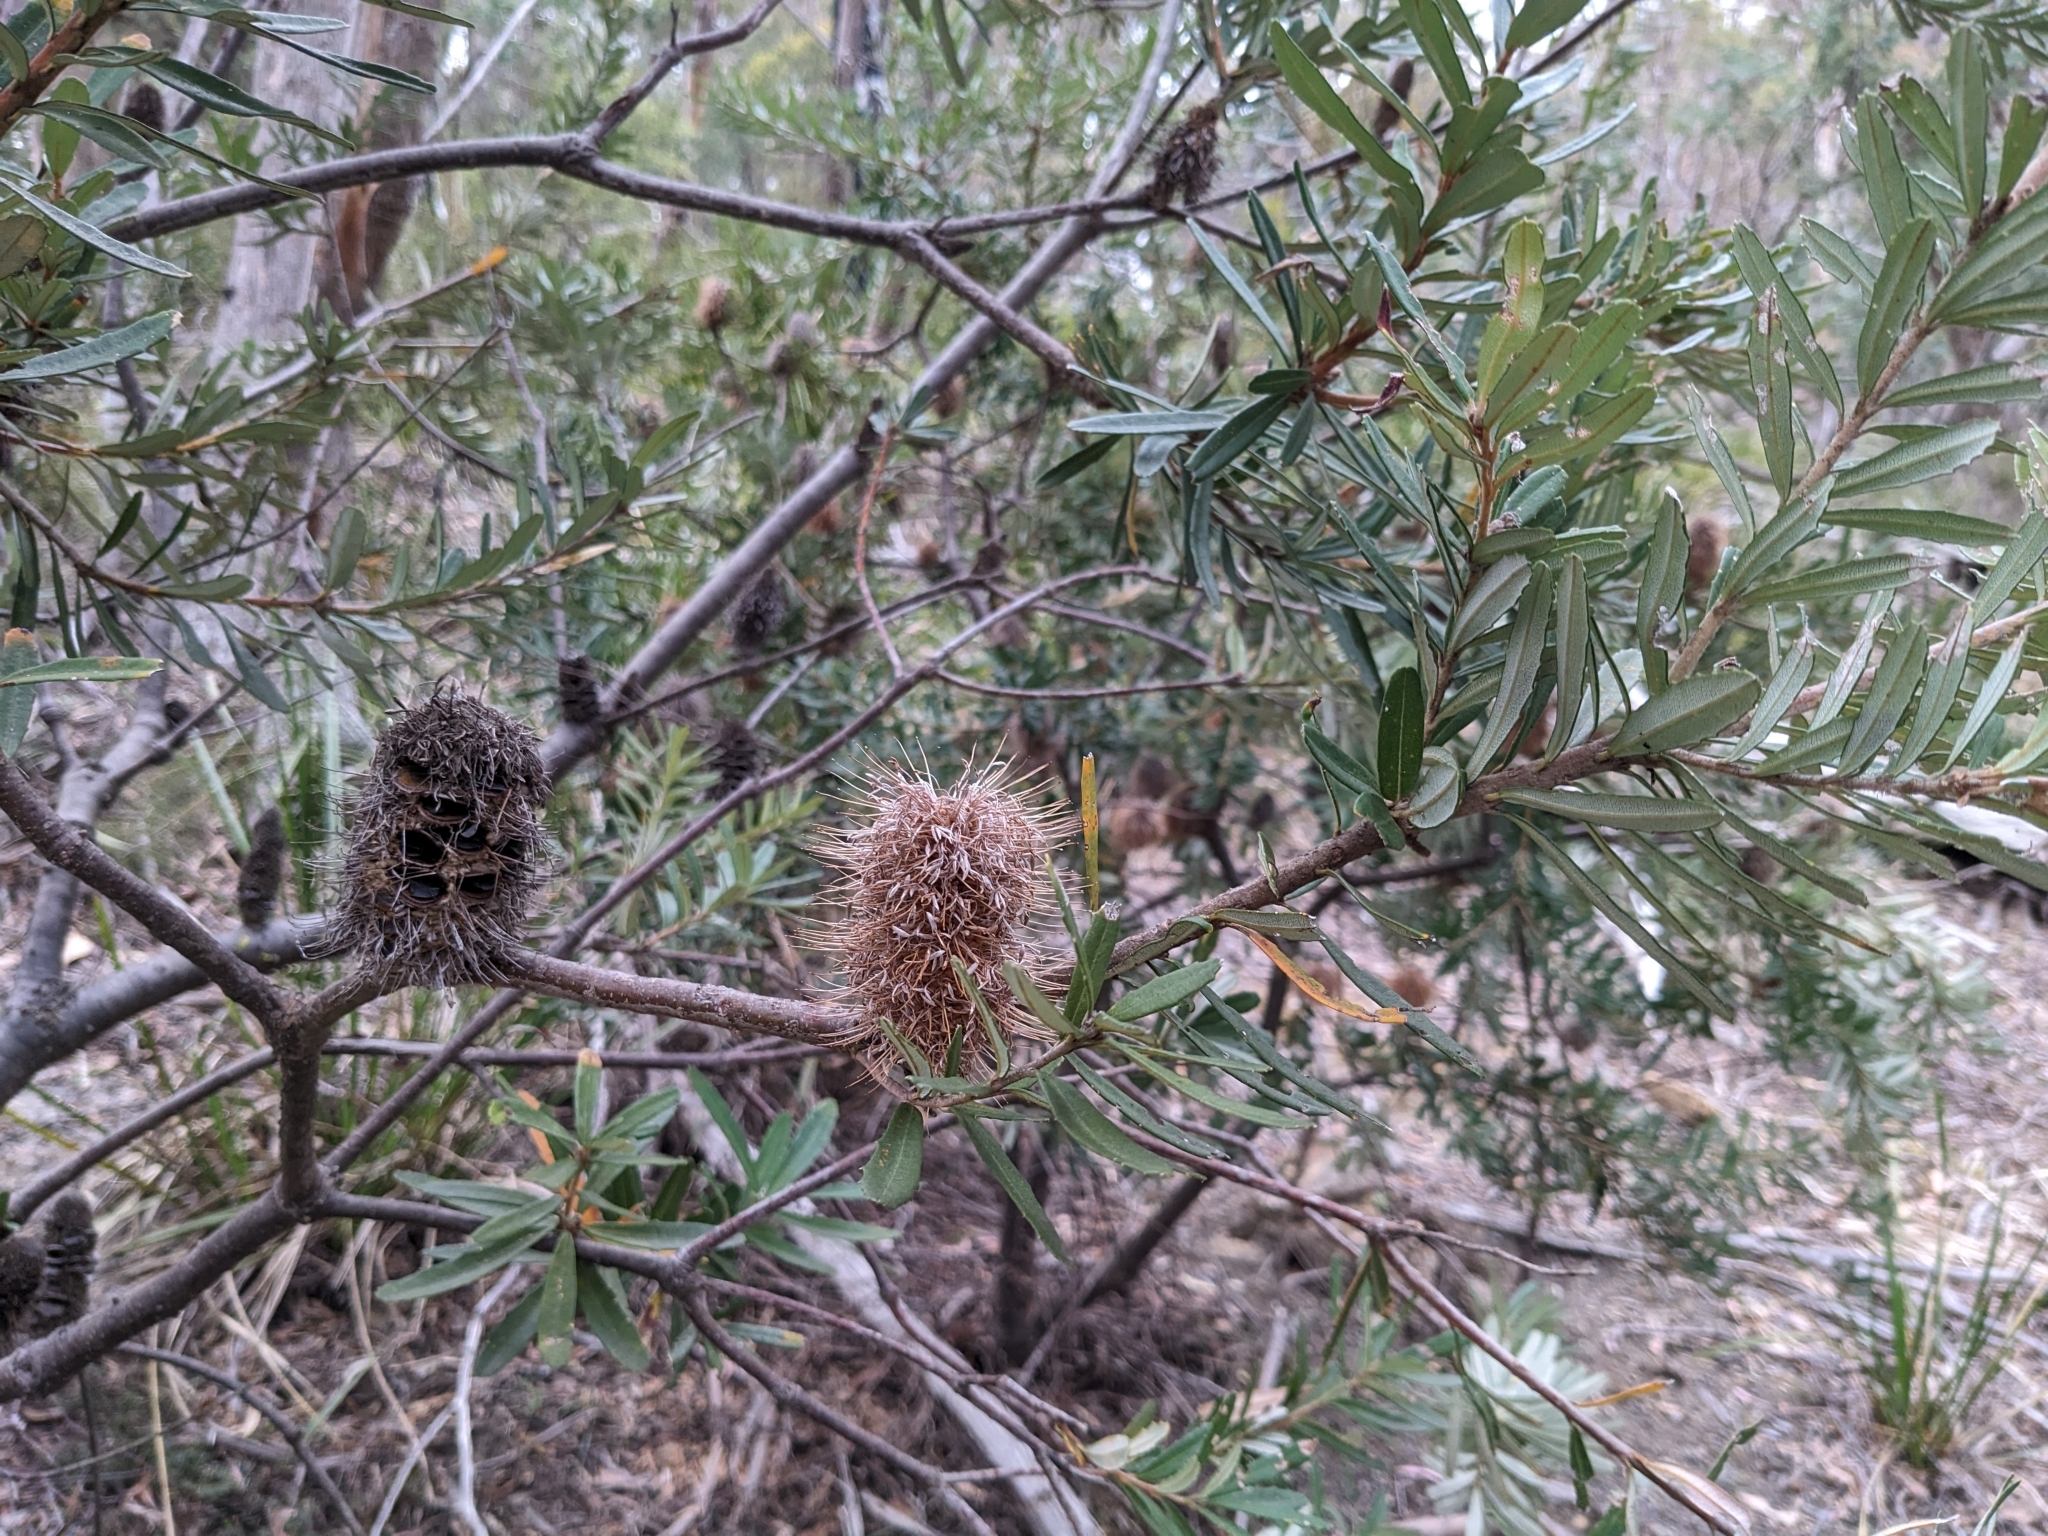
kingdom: Plantae
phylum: Tracheophyta
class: Magnoliopsida
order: Proteales
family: Proteaceae
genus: Banksia
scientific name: Banksia marginata
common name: Silver banksia
